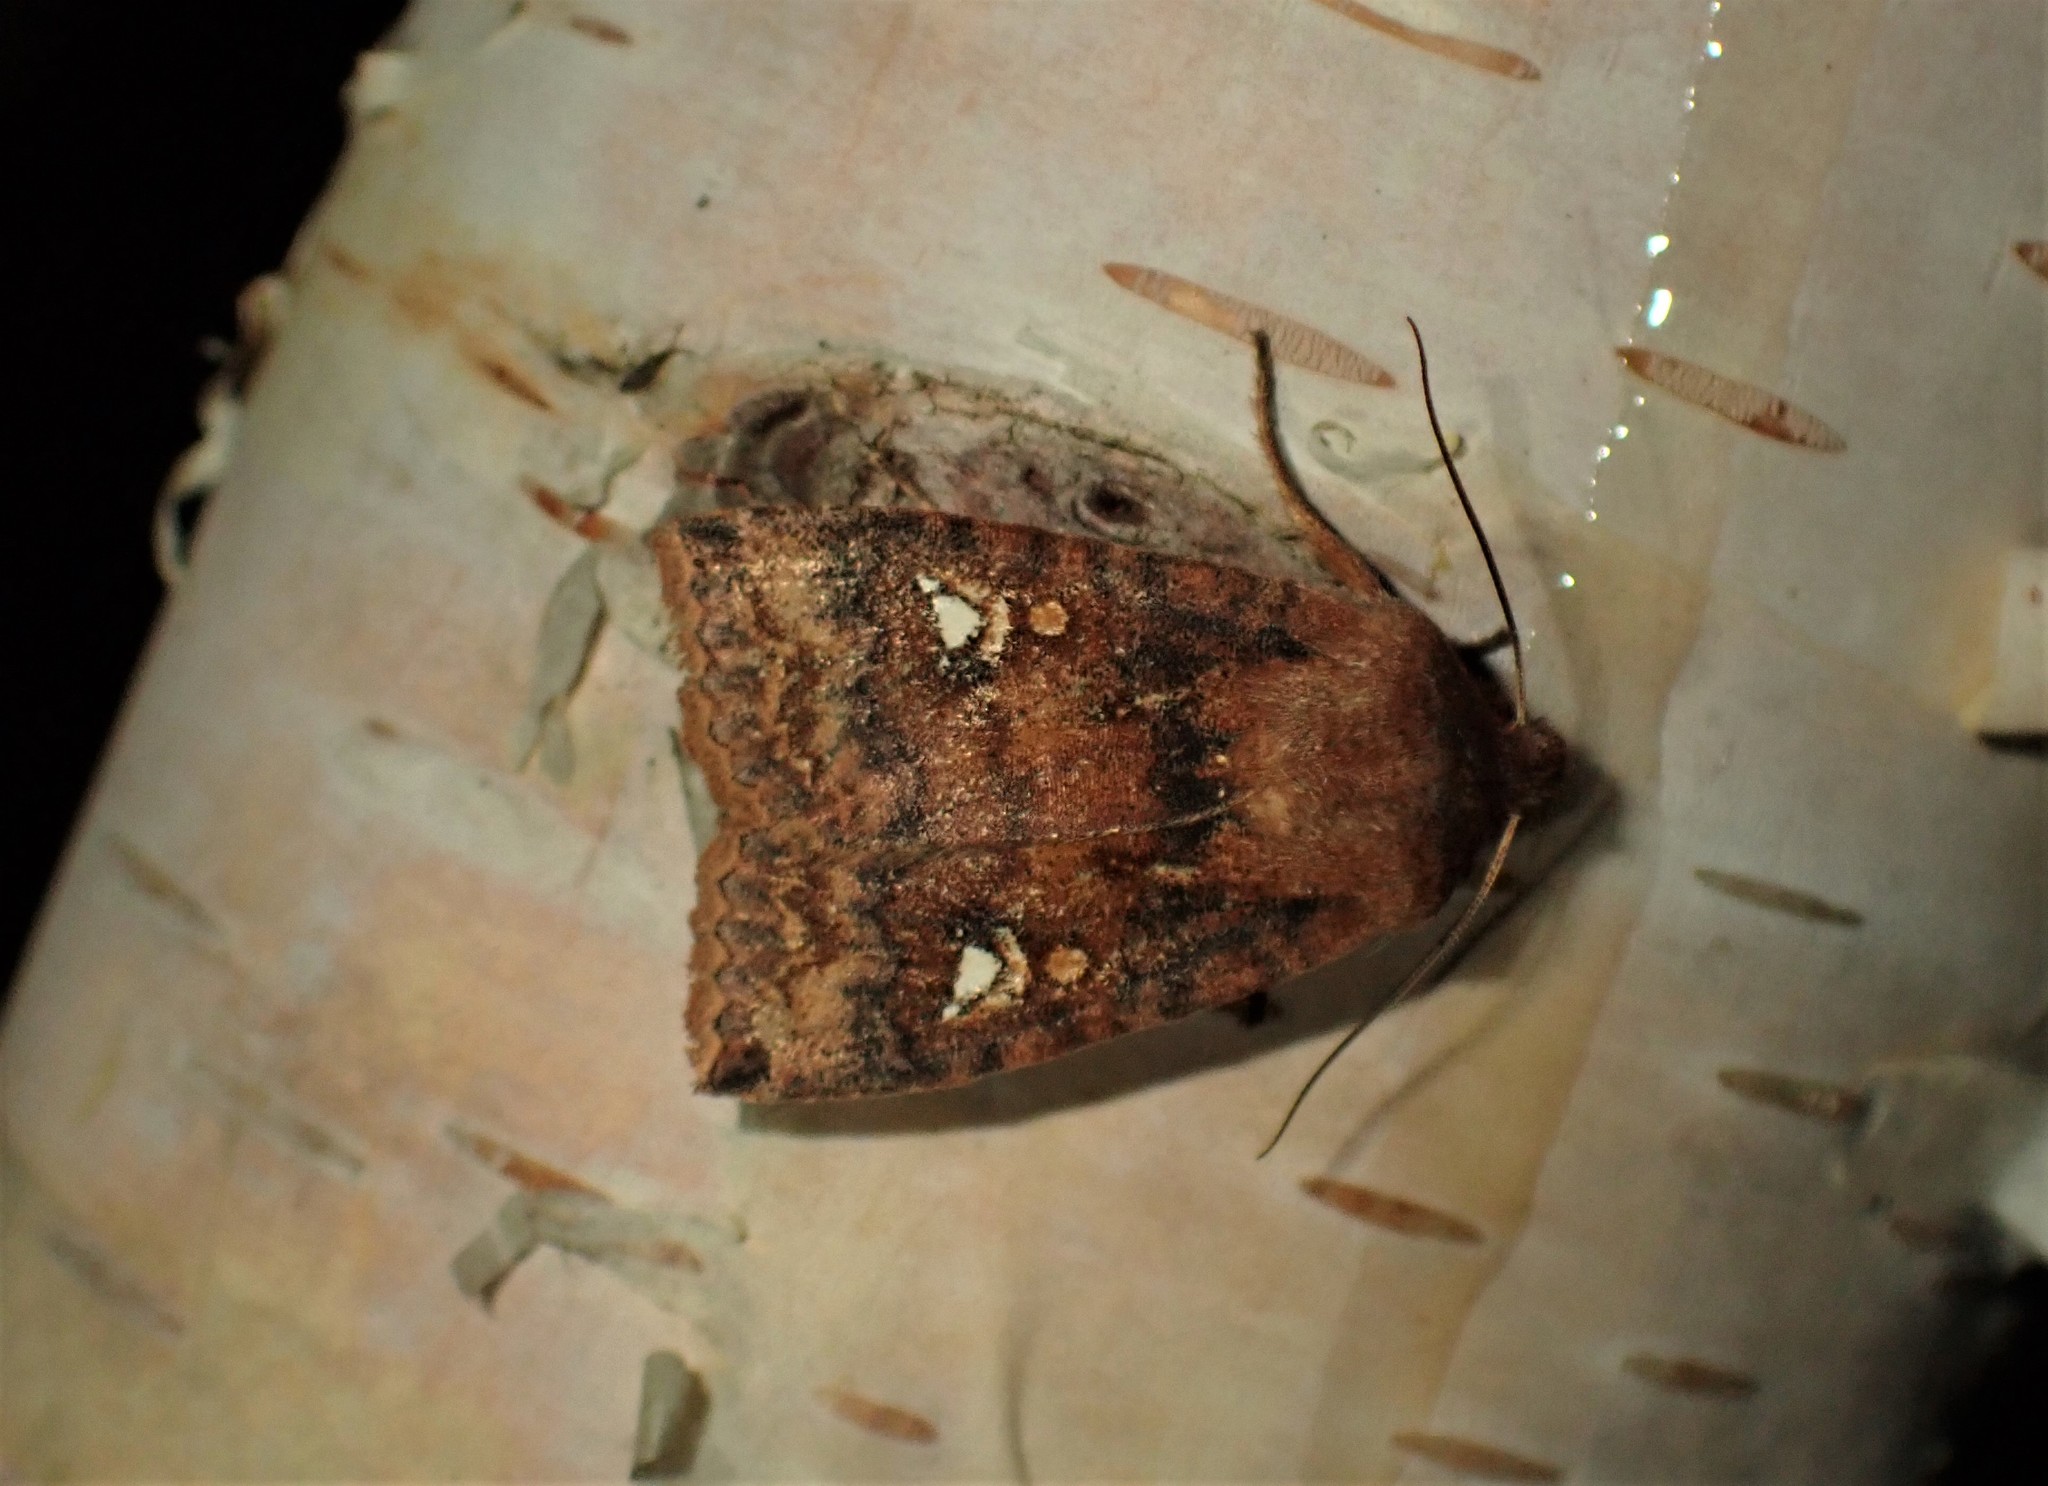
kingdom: Animalia
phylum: Arthropoda
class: Insecta
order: Lepidoptera
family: Noctuidae
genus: Eupsilia
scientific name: Eupsilia tristigmata
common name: Three-spotted sallow
